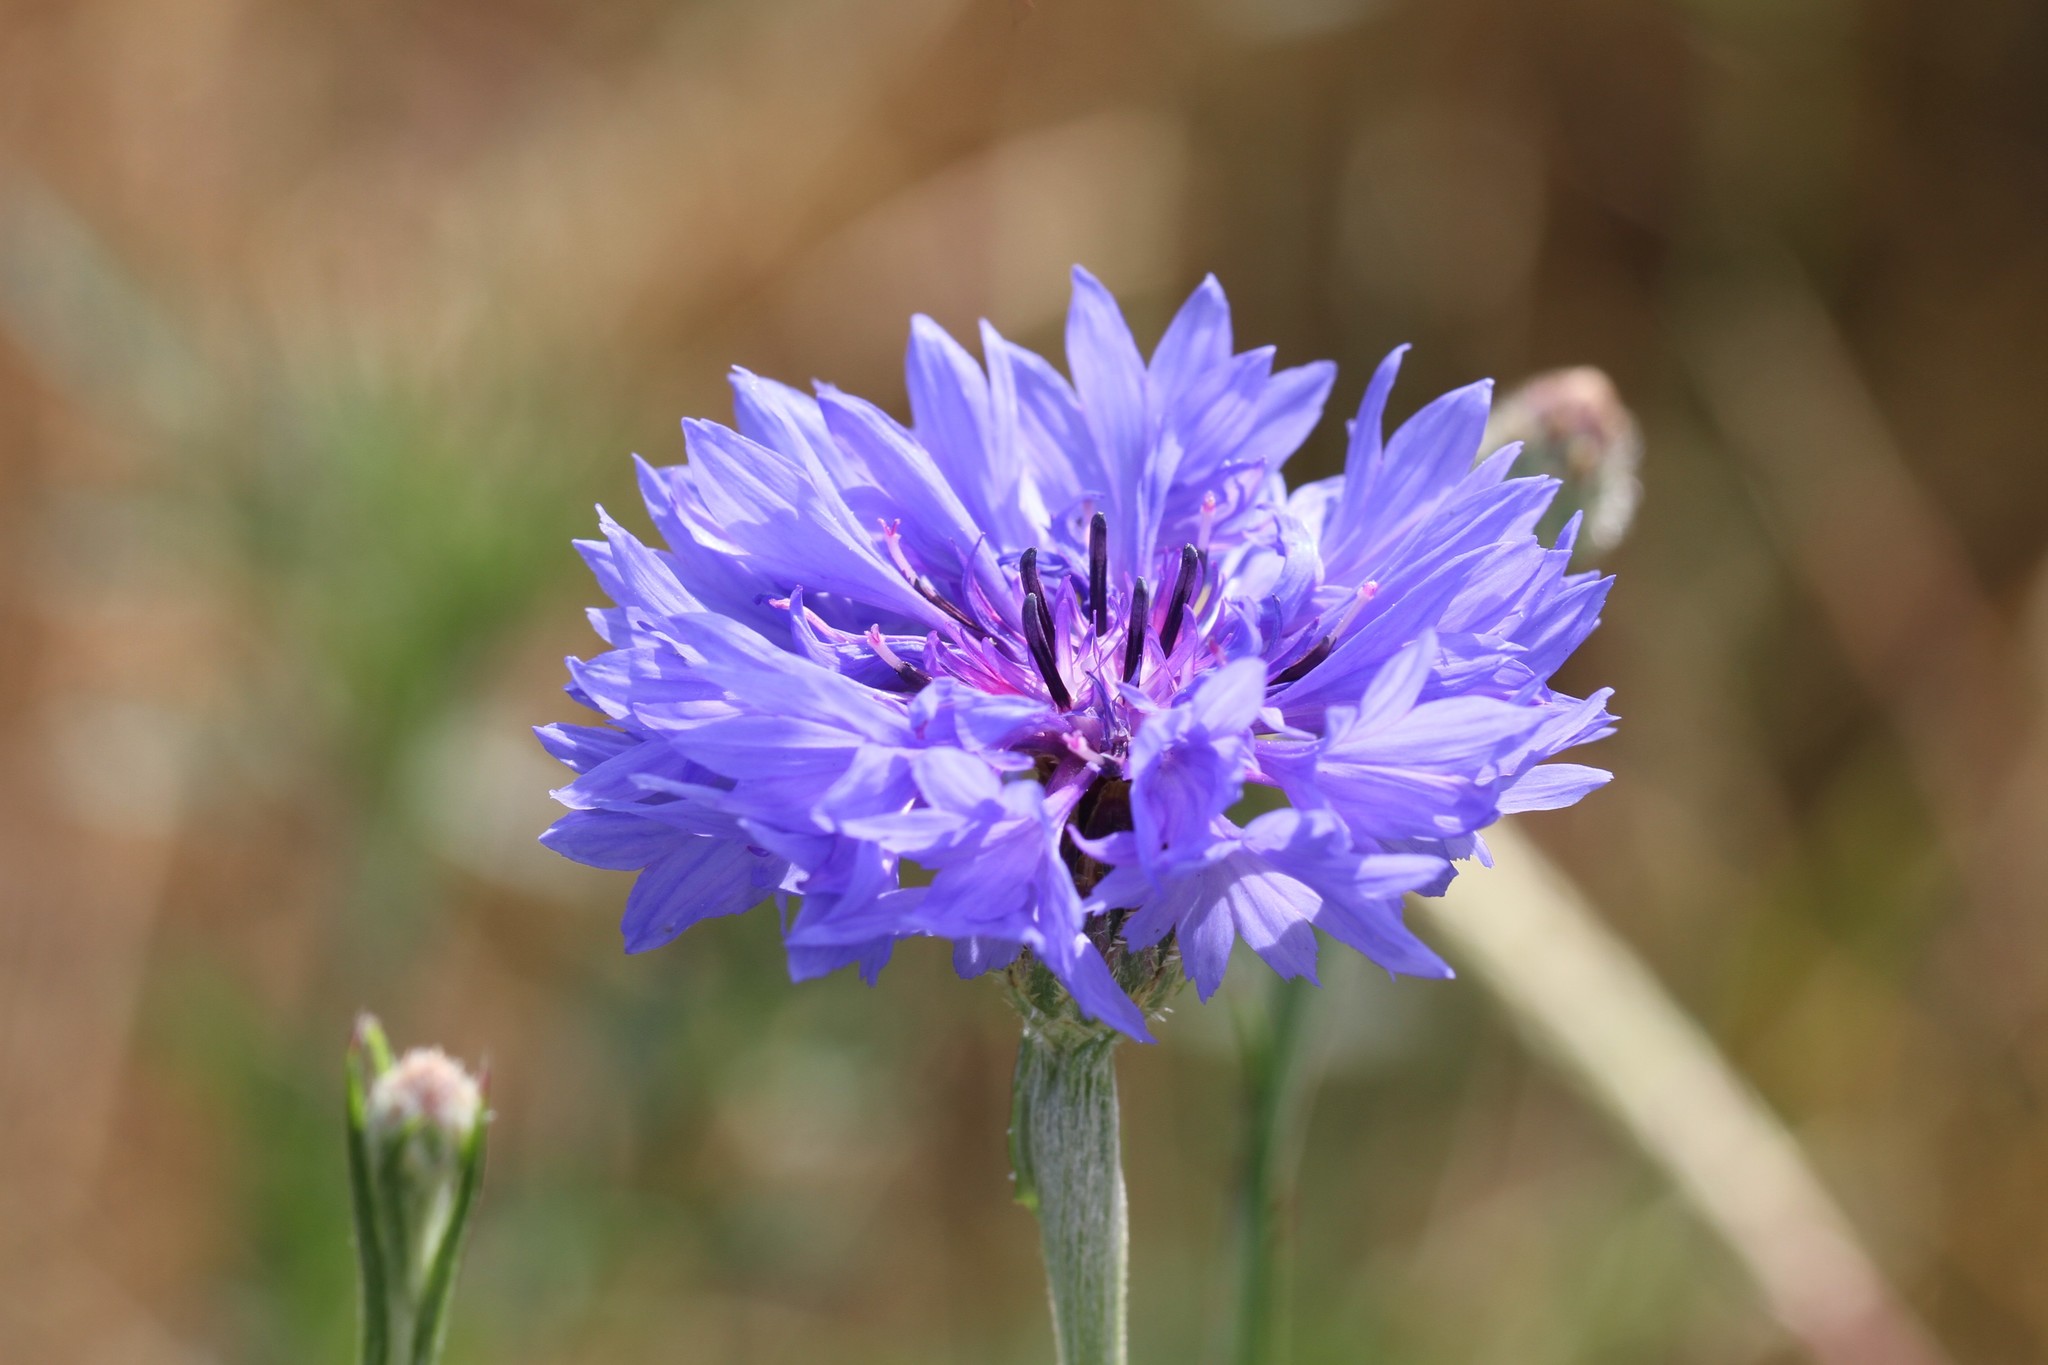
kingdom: Plantae
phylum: Tracheophyta
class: Magnoliopsida
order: Asterales
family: Asteraceae
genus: Centaurea
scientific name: Centaurea cyanus
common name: Cornflower
